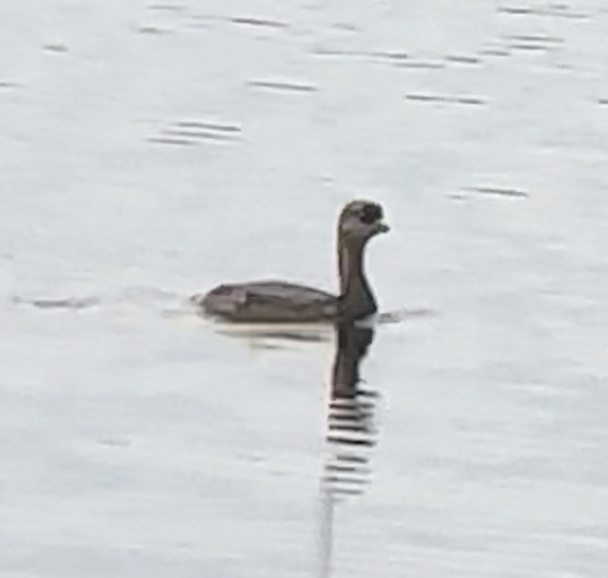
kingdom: Animalia
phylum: Chordata
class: Aves
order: Podicipediformes
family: Podicipedidae
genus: Podilymbus
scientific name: Podilymbus podiceps
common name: Pied-billed grebe
